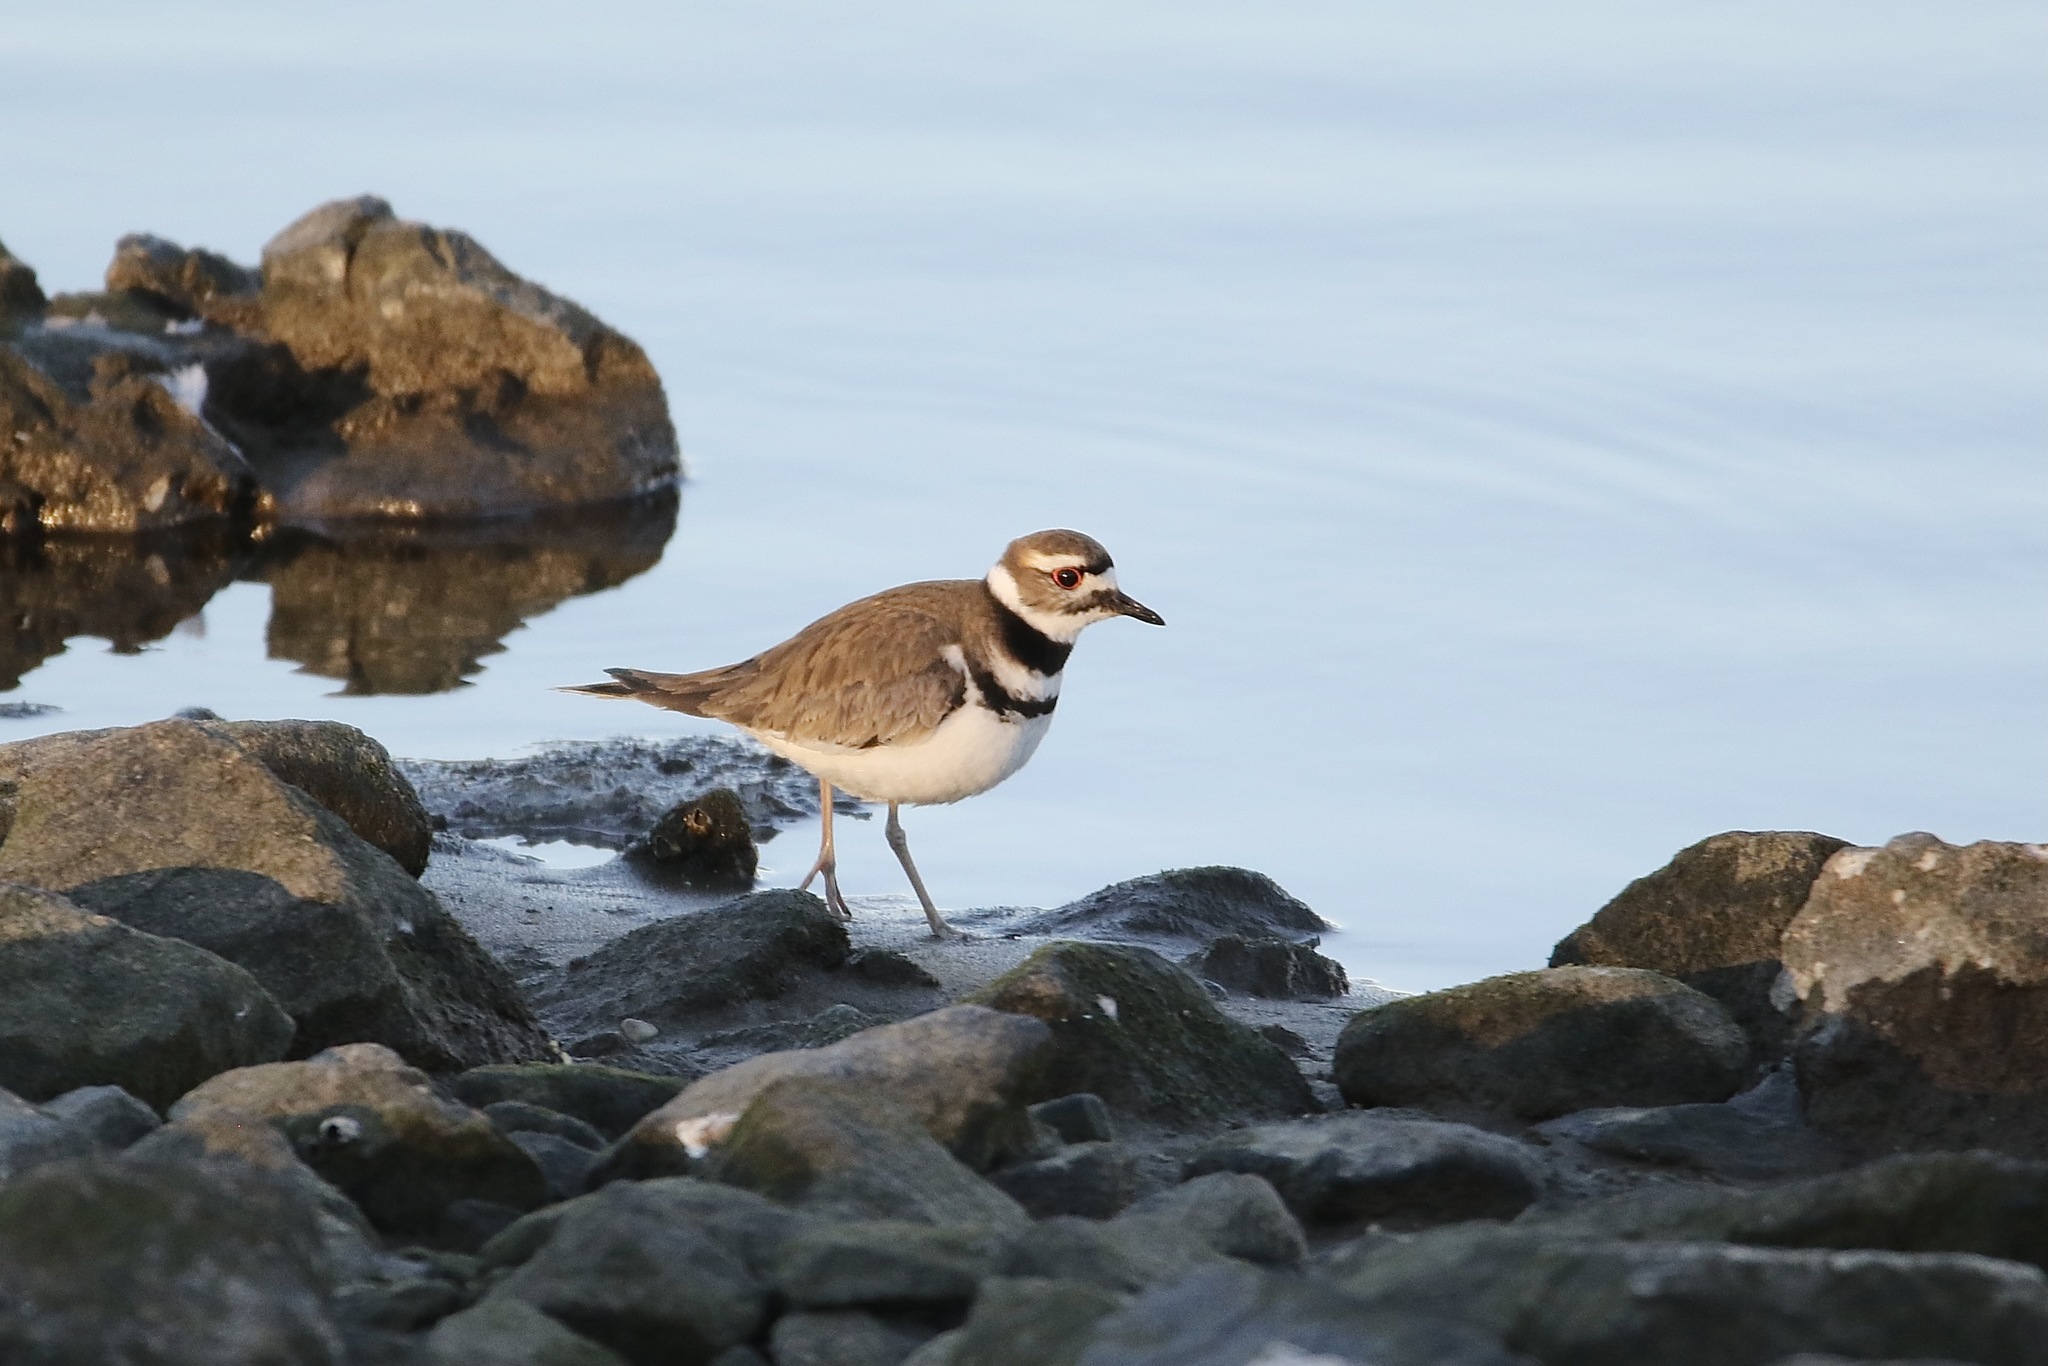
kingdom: Animalia
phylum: Chordata
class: Aves
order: Charadriiformes
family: Charadriidae
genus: Charadrius
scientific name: Charadrius vociferus
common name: Killdeer
